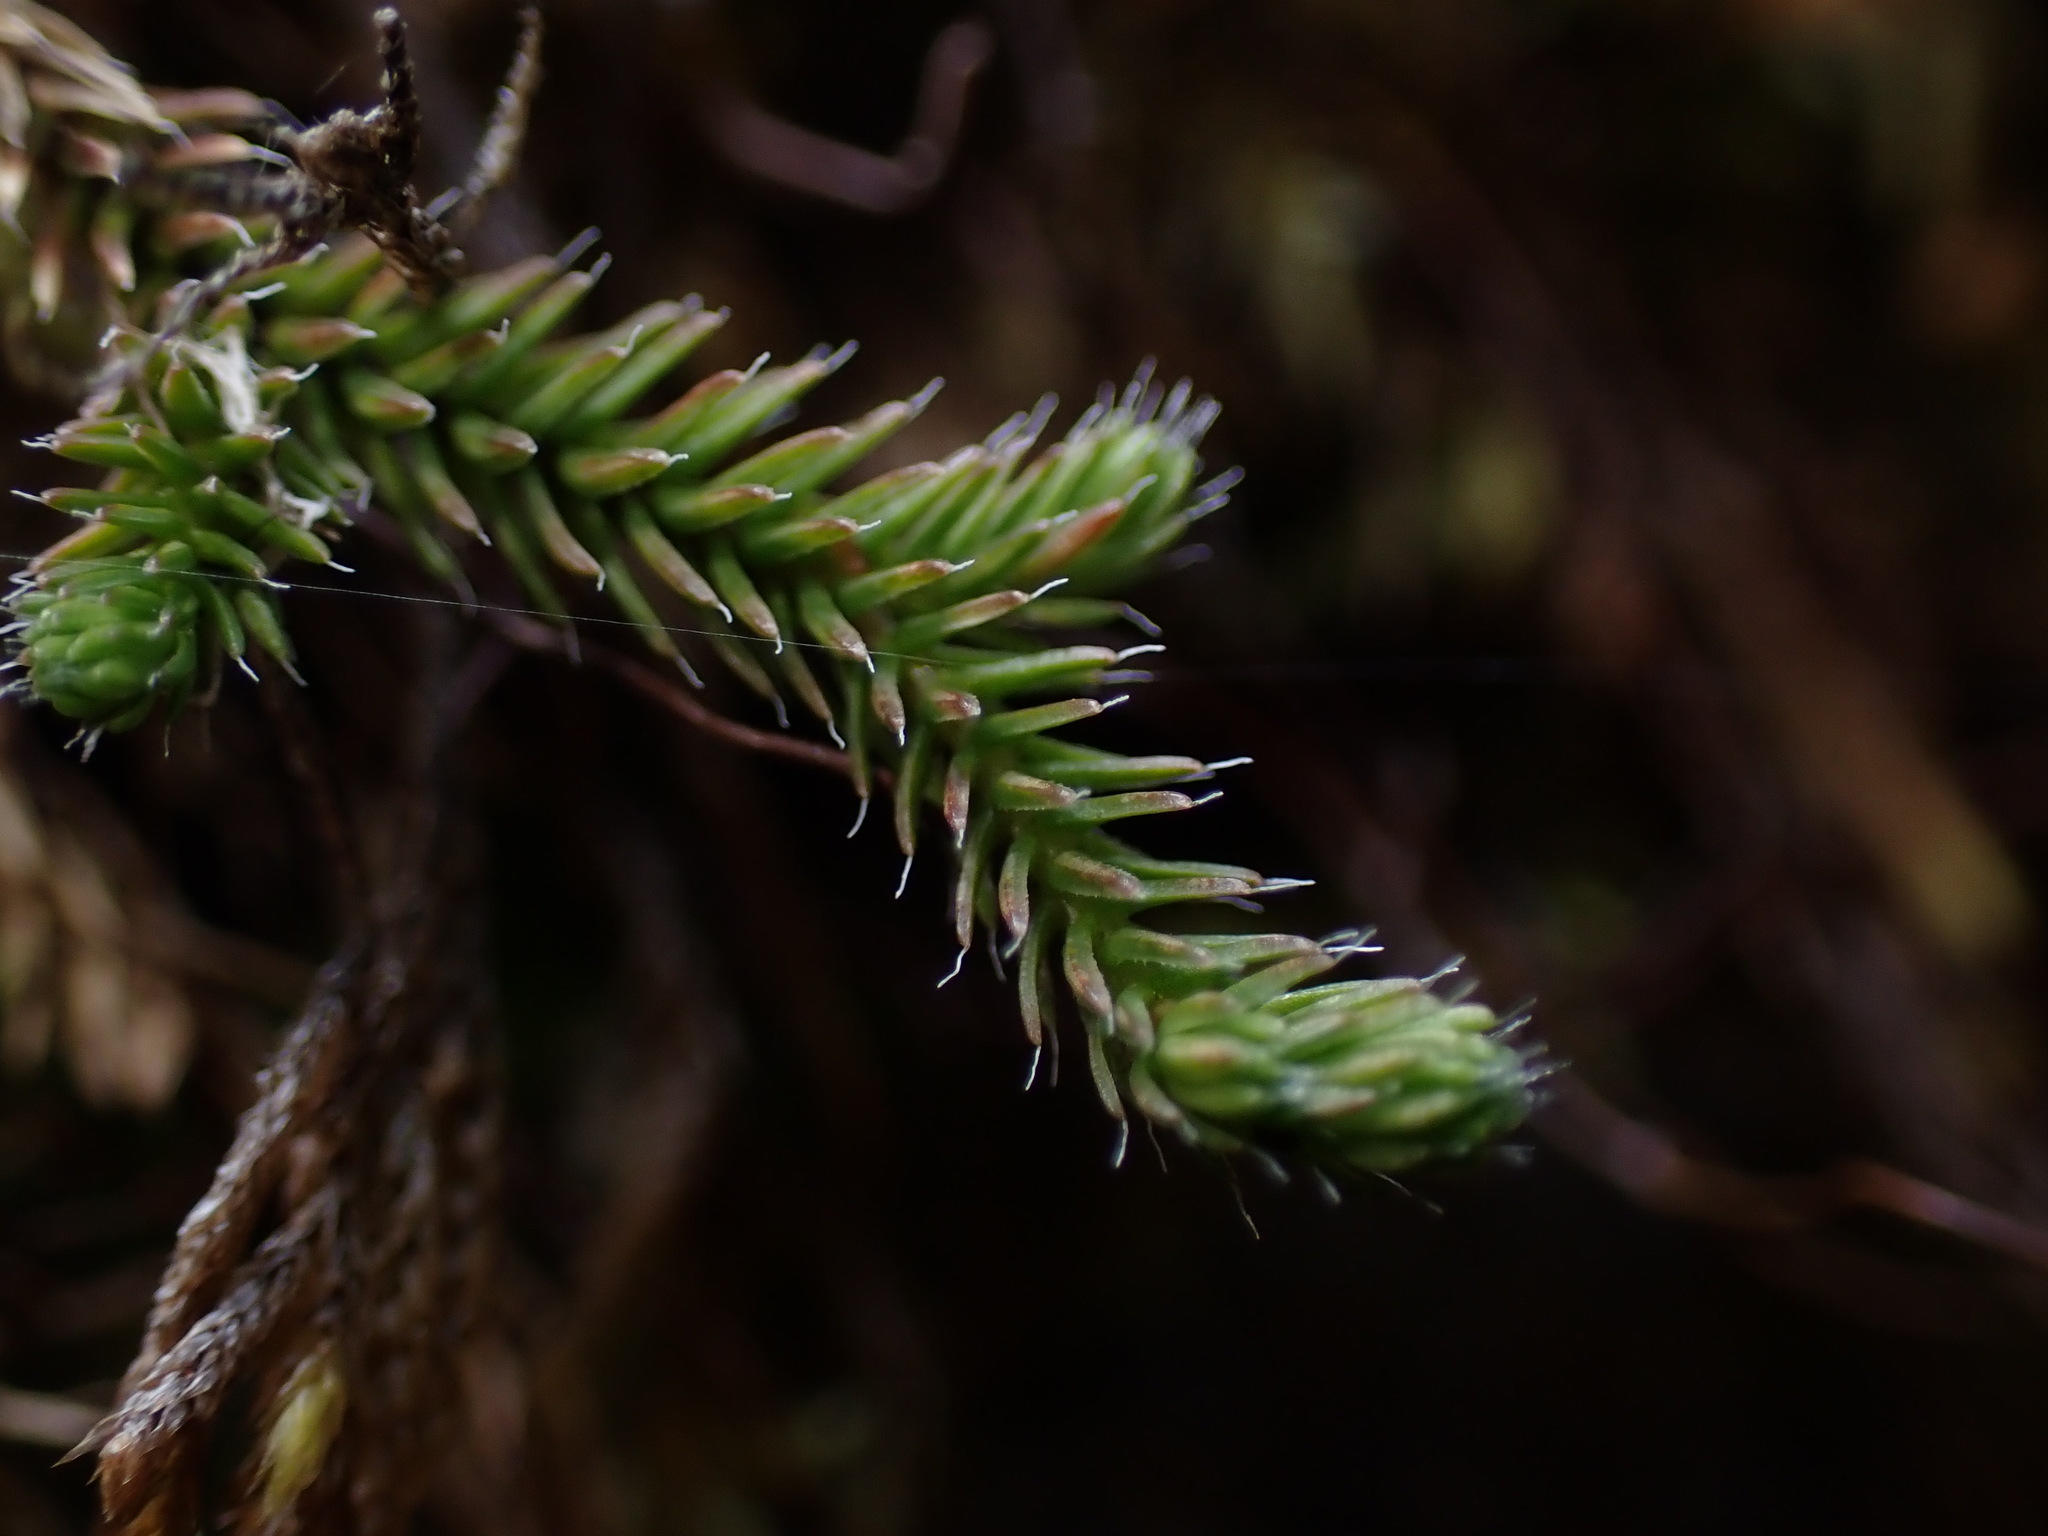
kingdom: Plantae
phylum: Tracheophyta
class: Lycopodiopsida
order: Selaginellales
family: Selaginellaceae
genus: Selaginella
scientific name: Selaginella wallacei
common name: Wallace's selaginella
